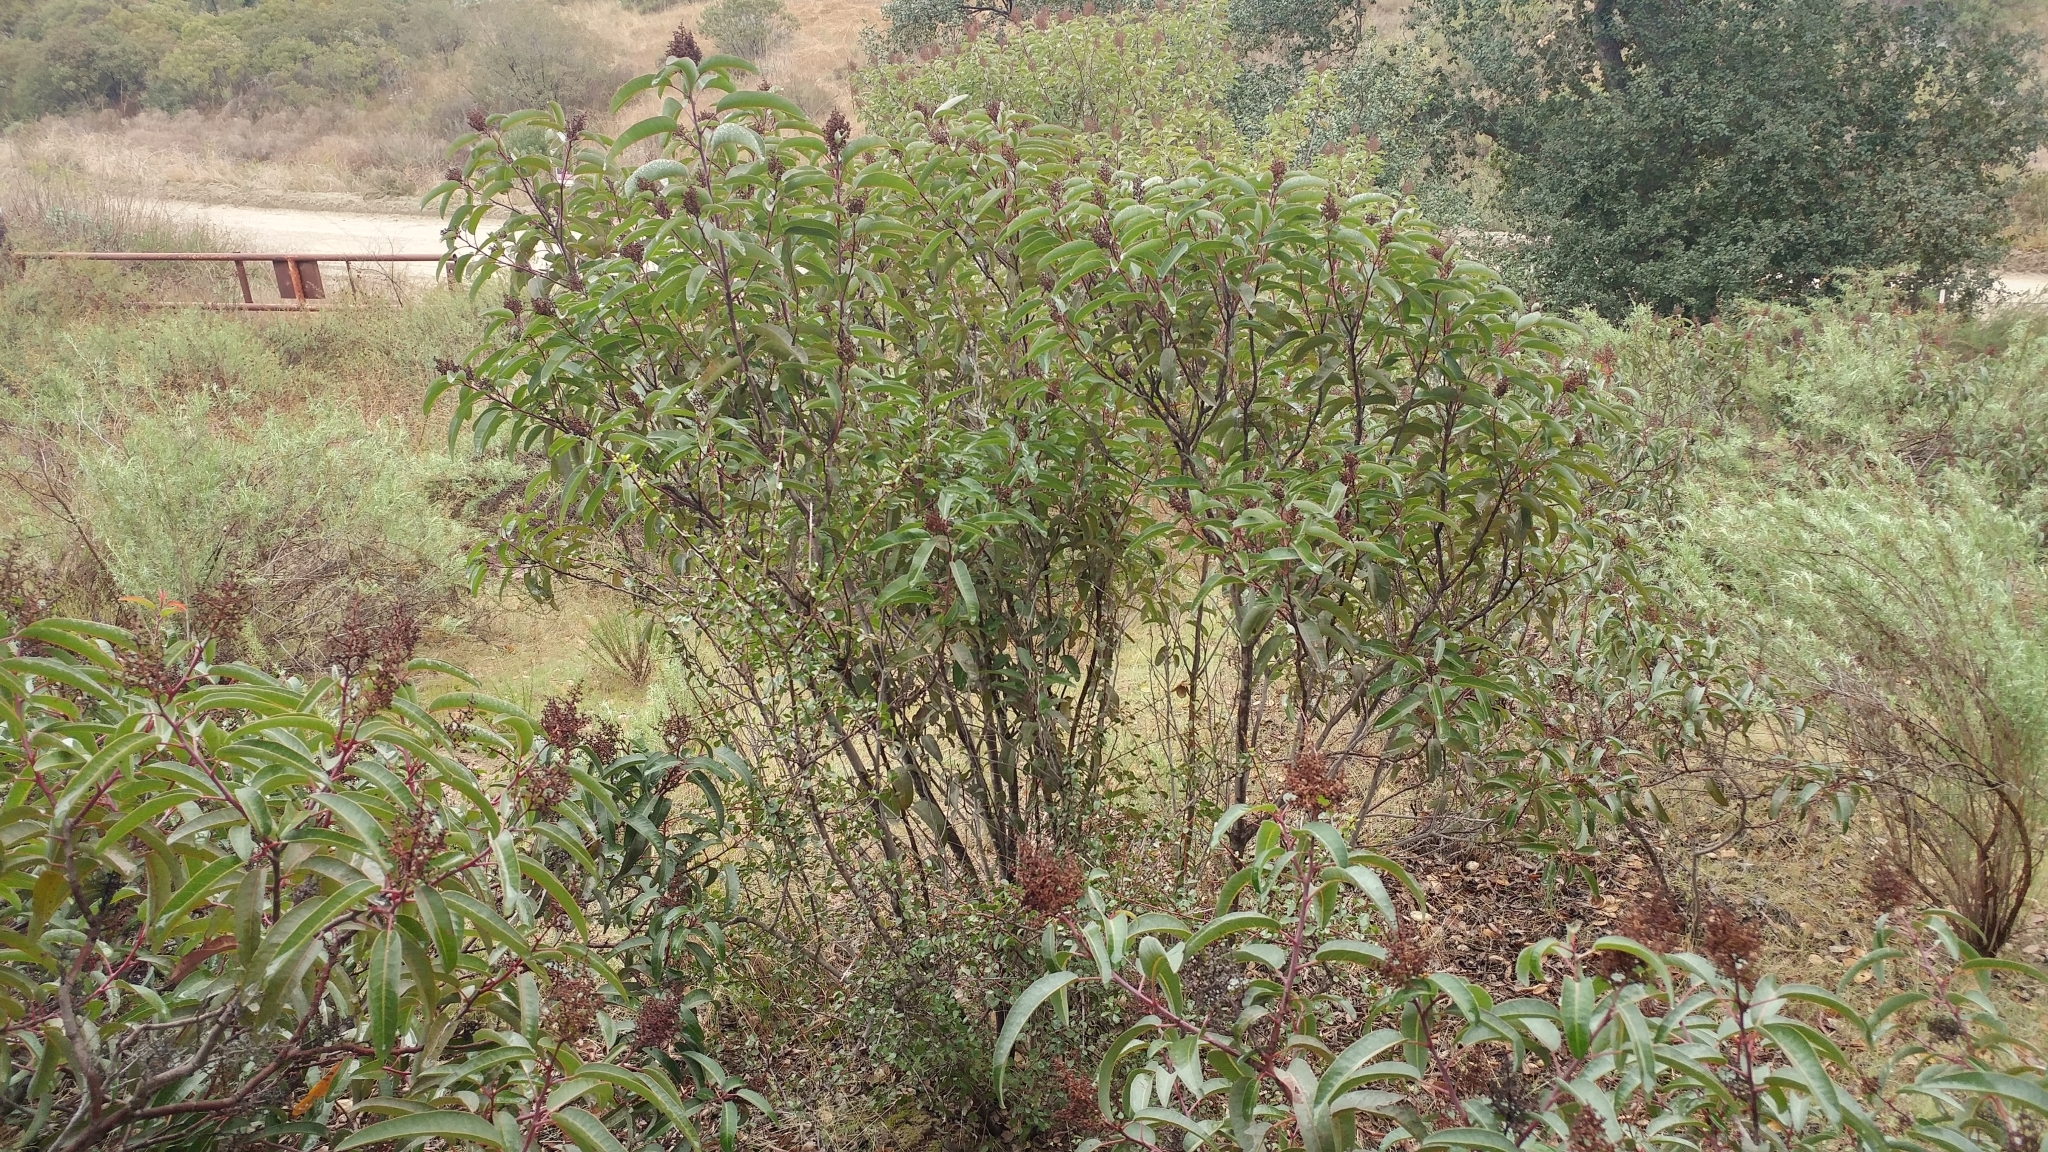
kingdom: Plantae
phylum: Tracheophyta
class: Magnoliopsida
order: Sapindales
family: Anacardiaceae
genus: Malosma
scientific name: Malosma laurina
